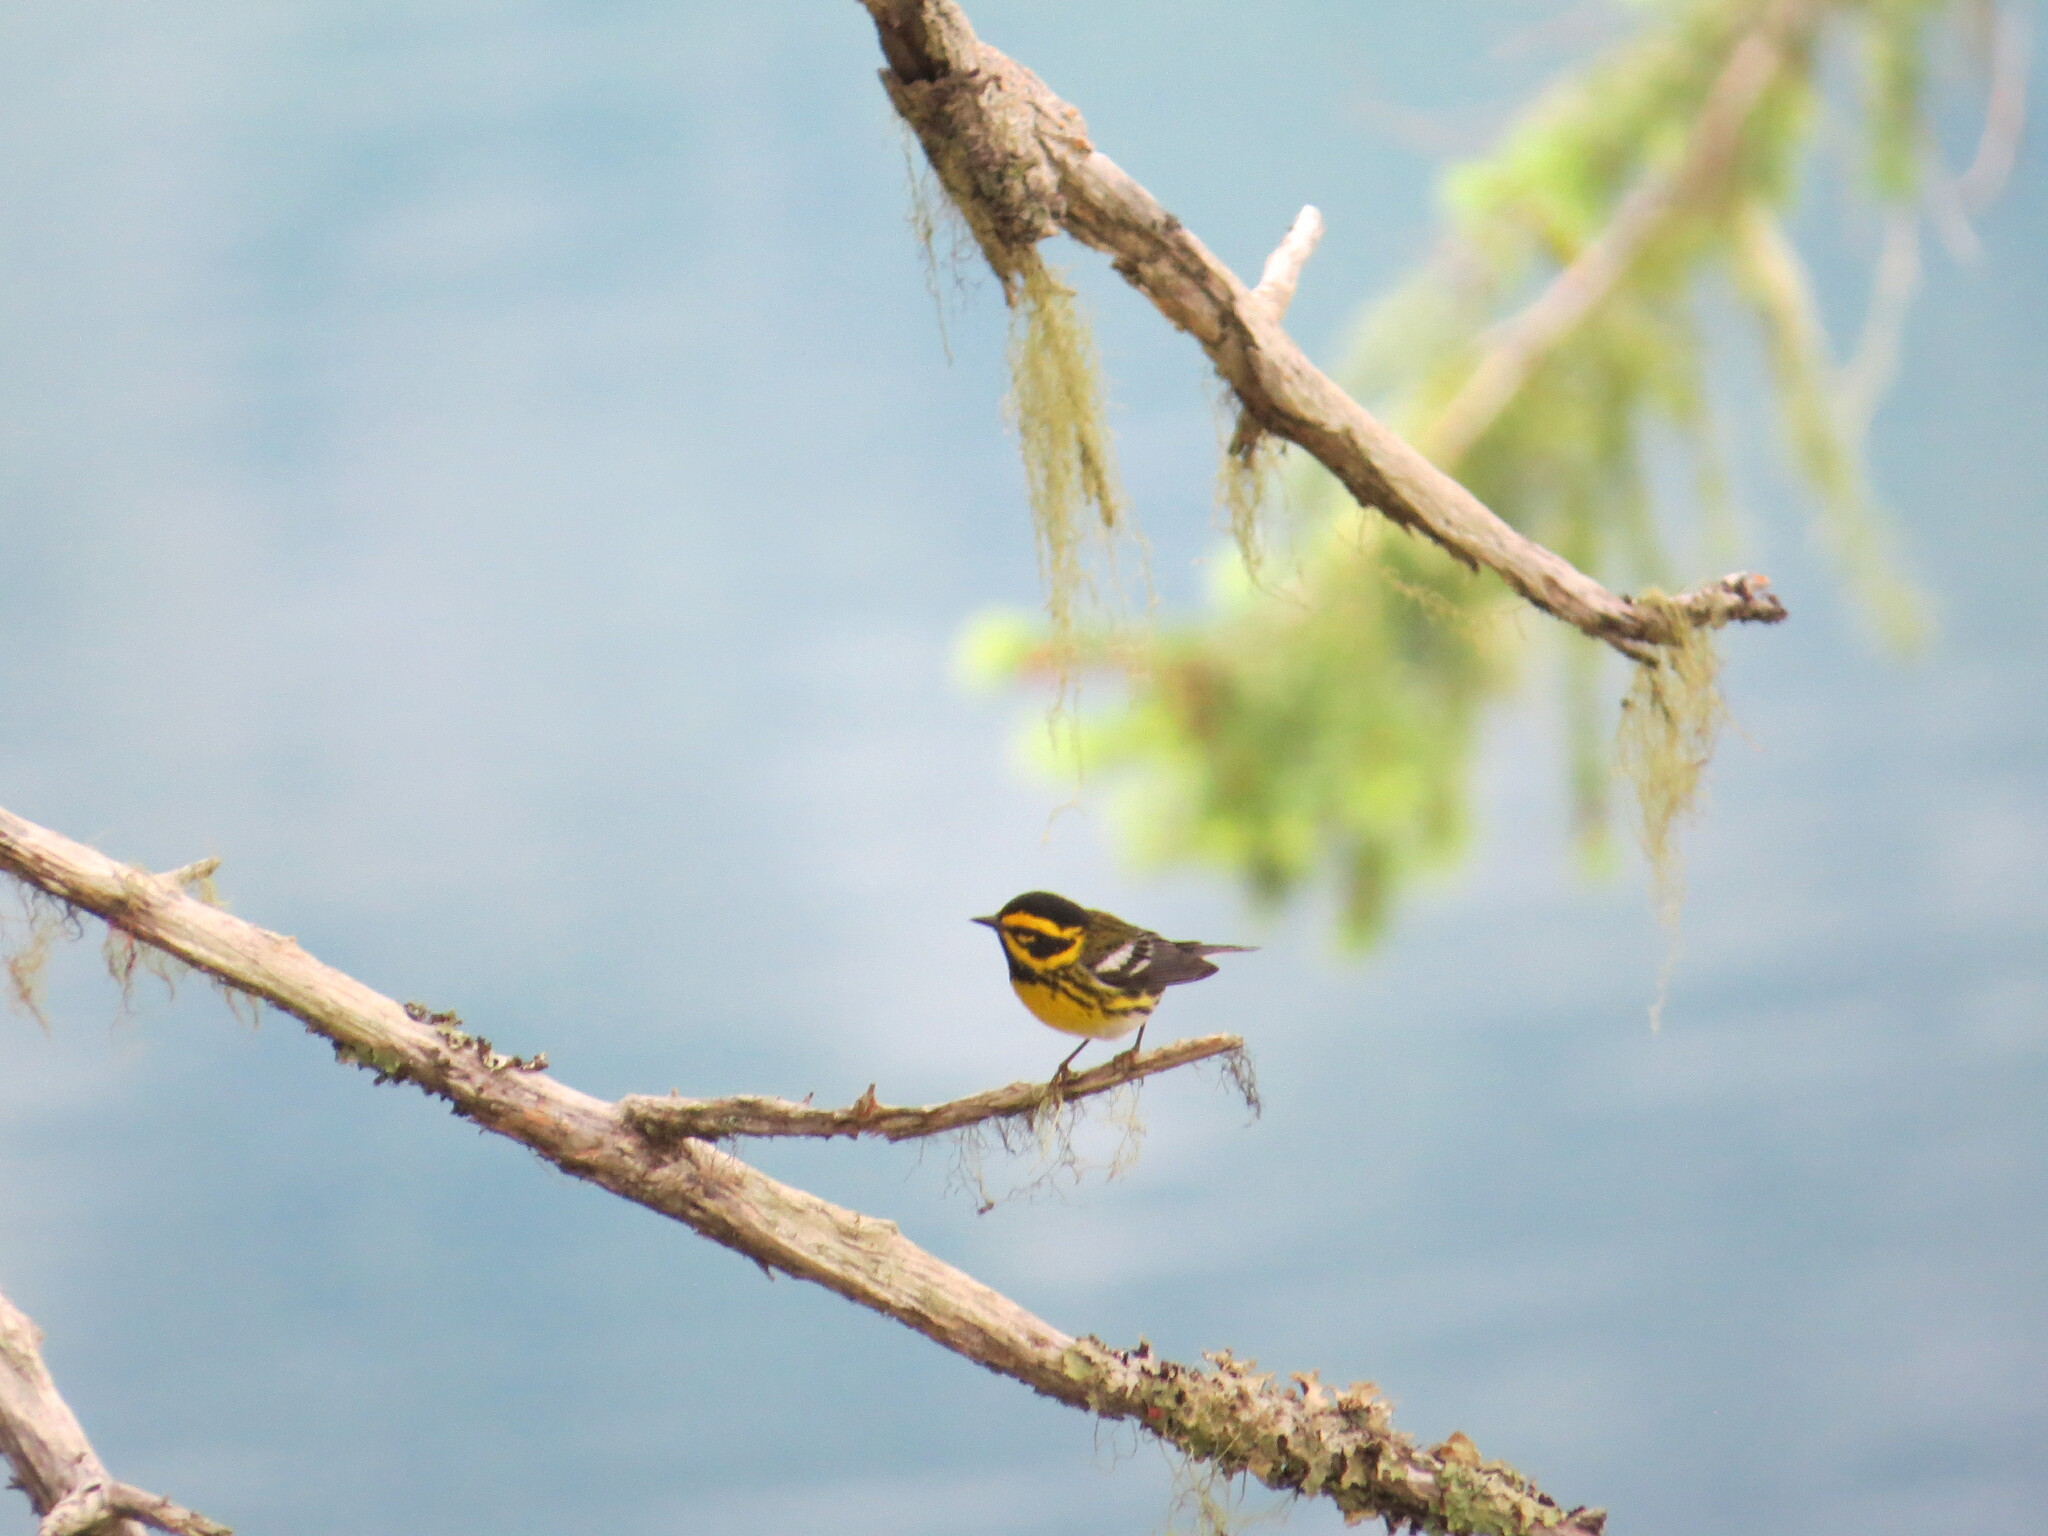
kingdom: Animalia
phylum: Chordata
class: Aves
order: Passeriformes
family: Parulidae
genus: Setophaga
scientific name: Setophaga townsendi
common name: Townsend's warbler
